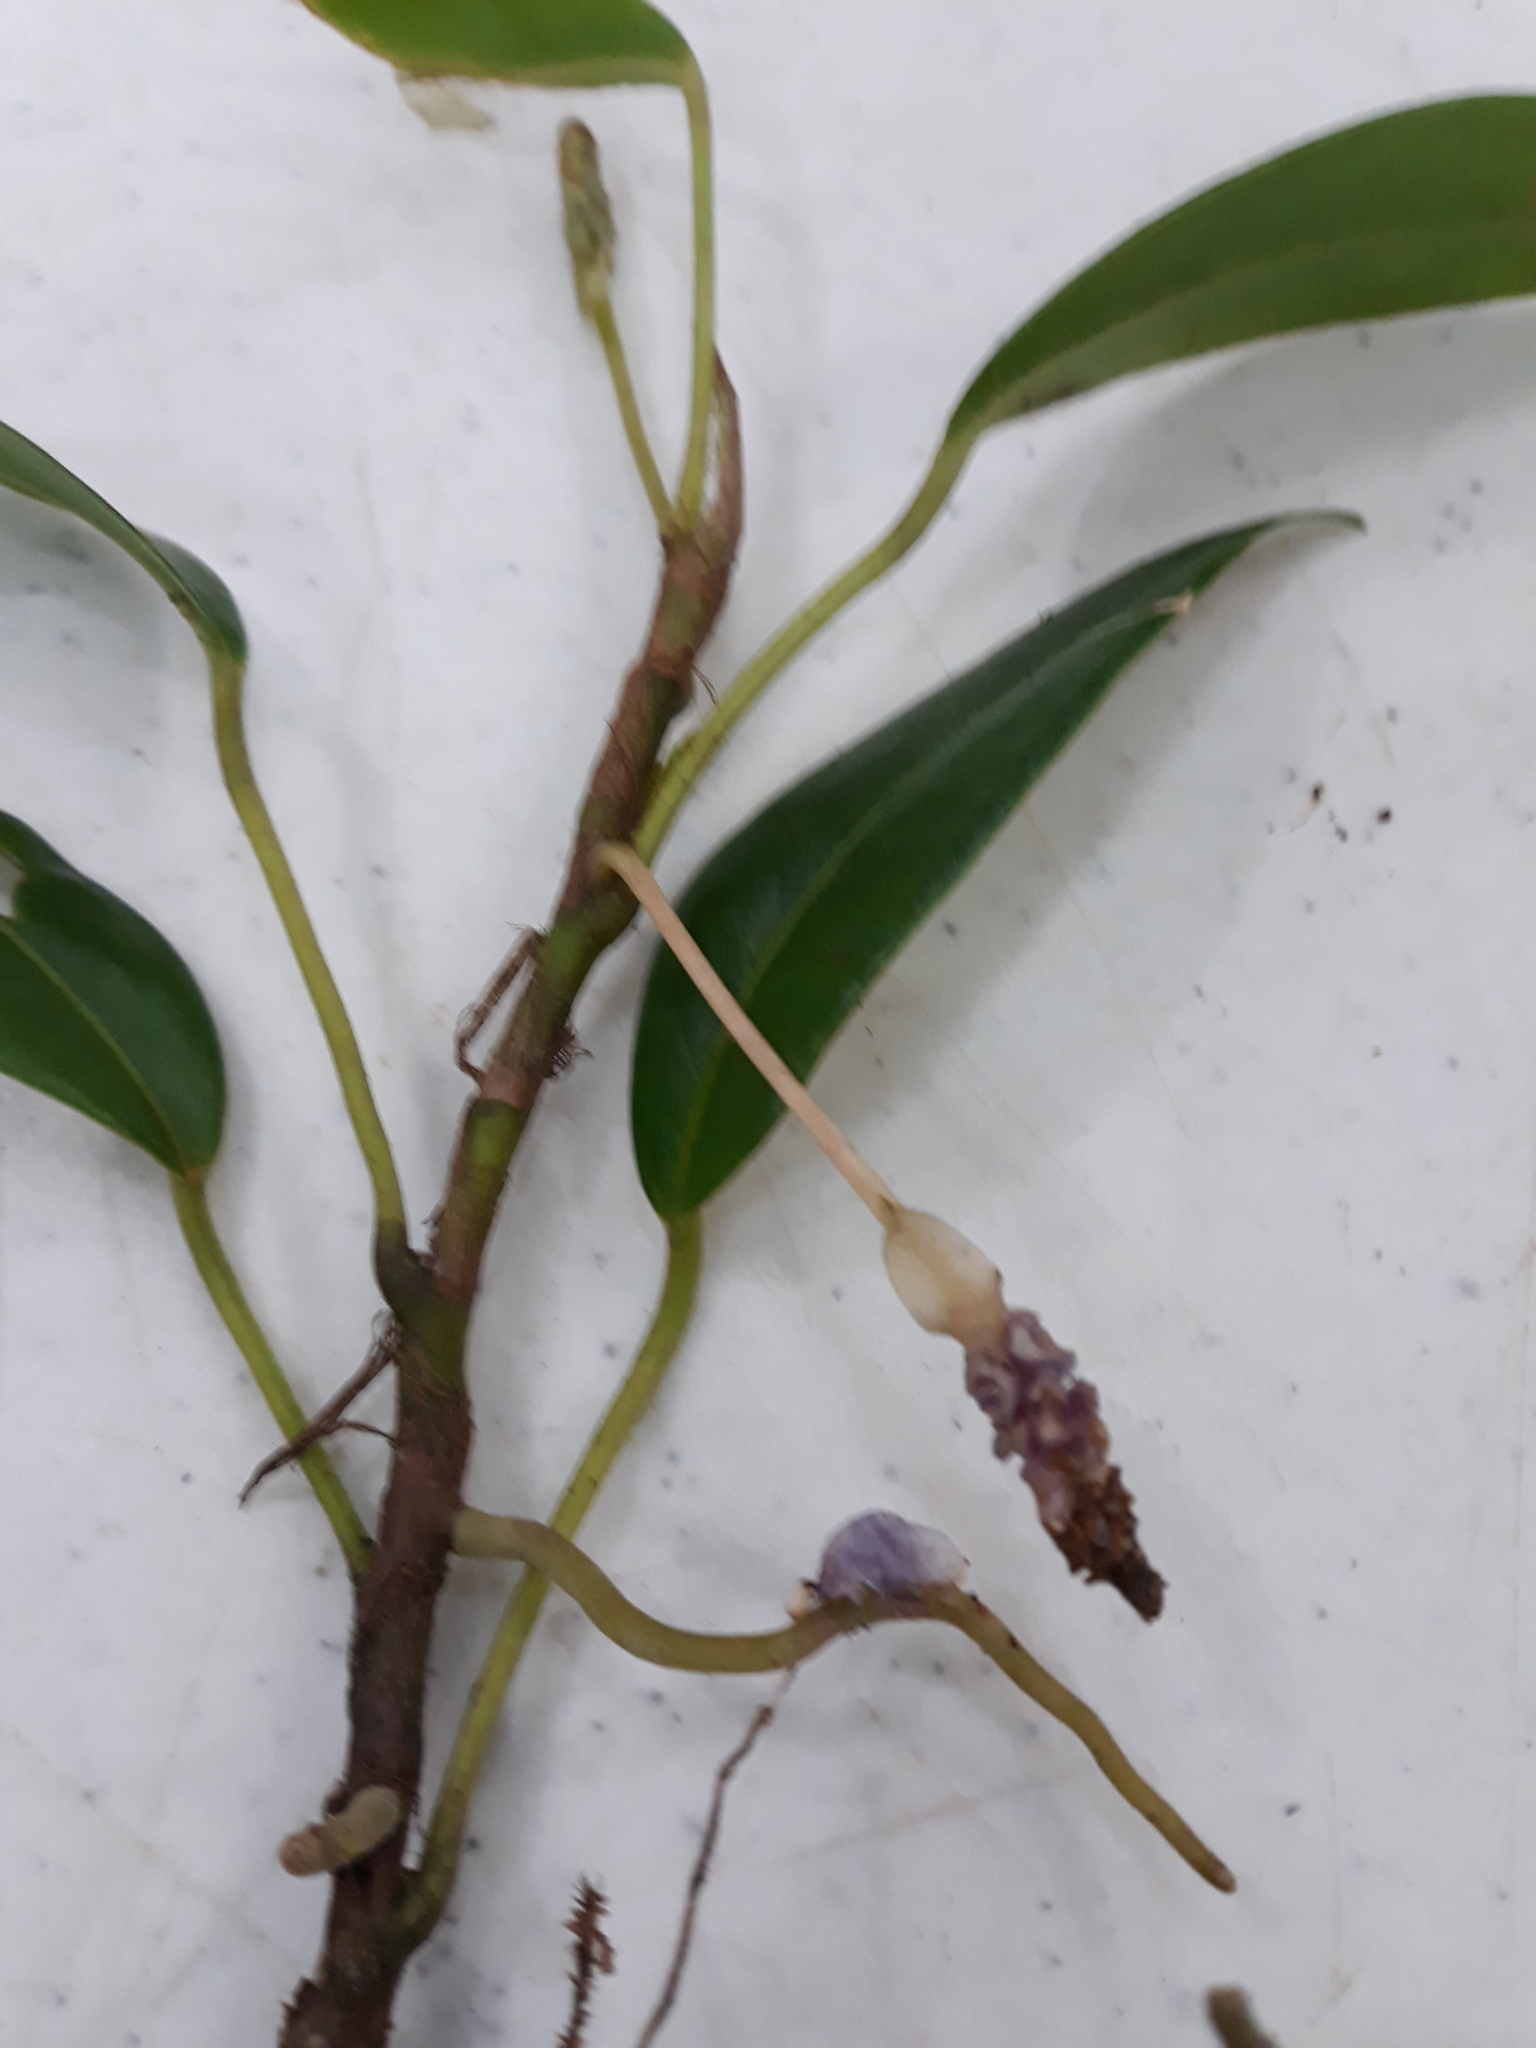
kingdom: Plantae
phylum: Tracheophyta
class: Liliopsida
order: Alismatales
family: Araceae
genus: Anthurium
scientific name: Anthurium scandens
